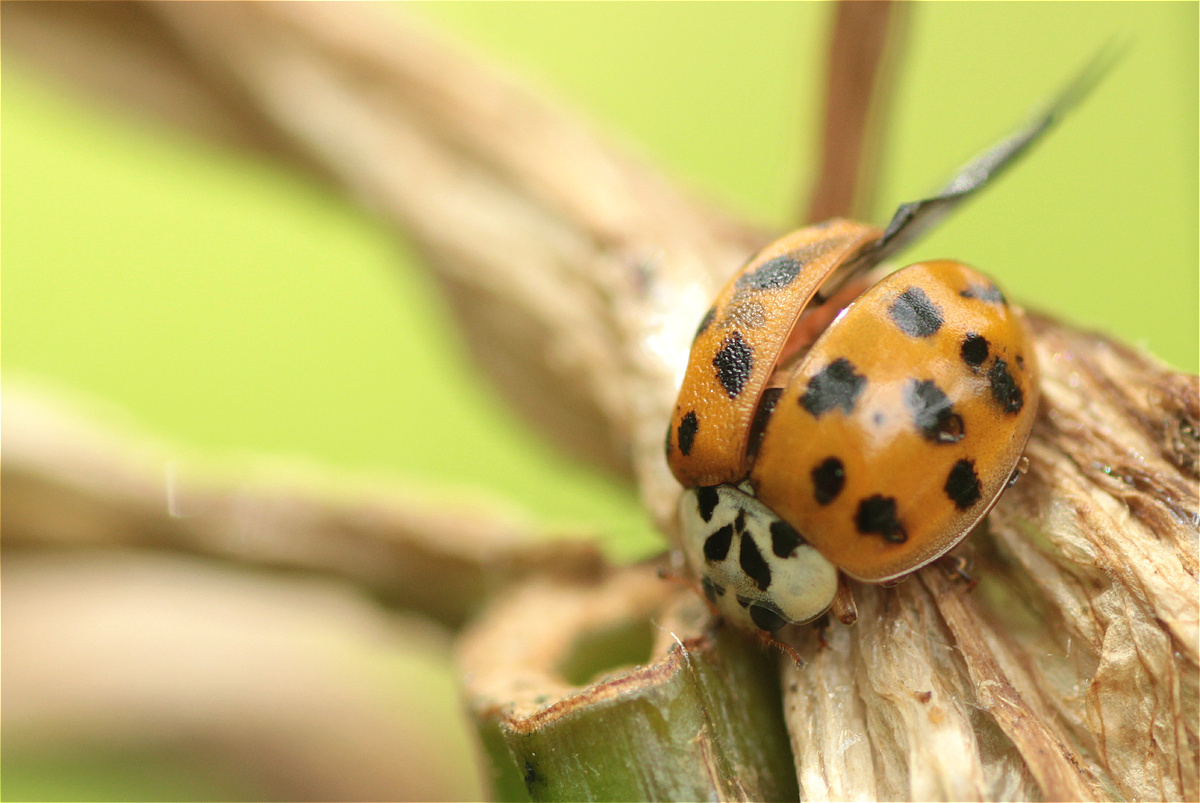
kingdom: Animalia
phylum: Arthropoda
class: Insecta
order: Coleoptera
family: Coccinellidae
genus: Harmonia
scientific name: Harmonia axyridis
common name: Harlequin ladybird
